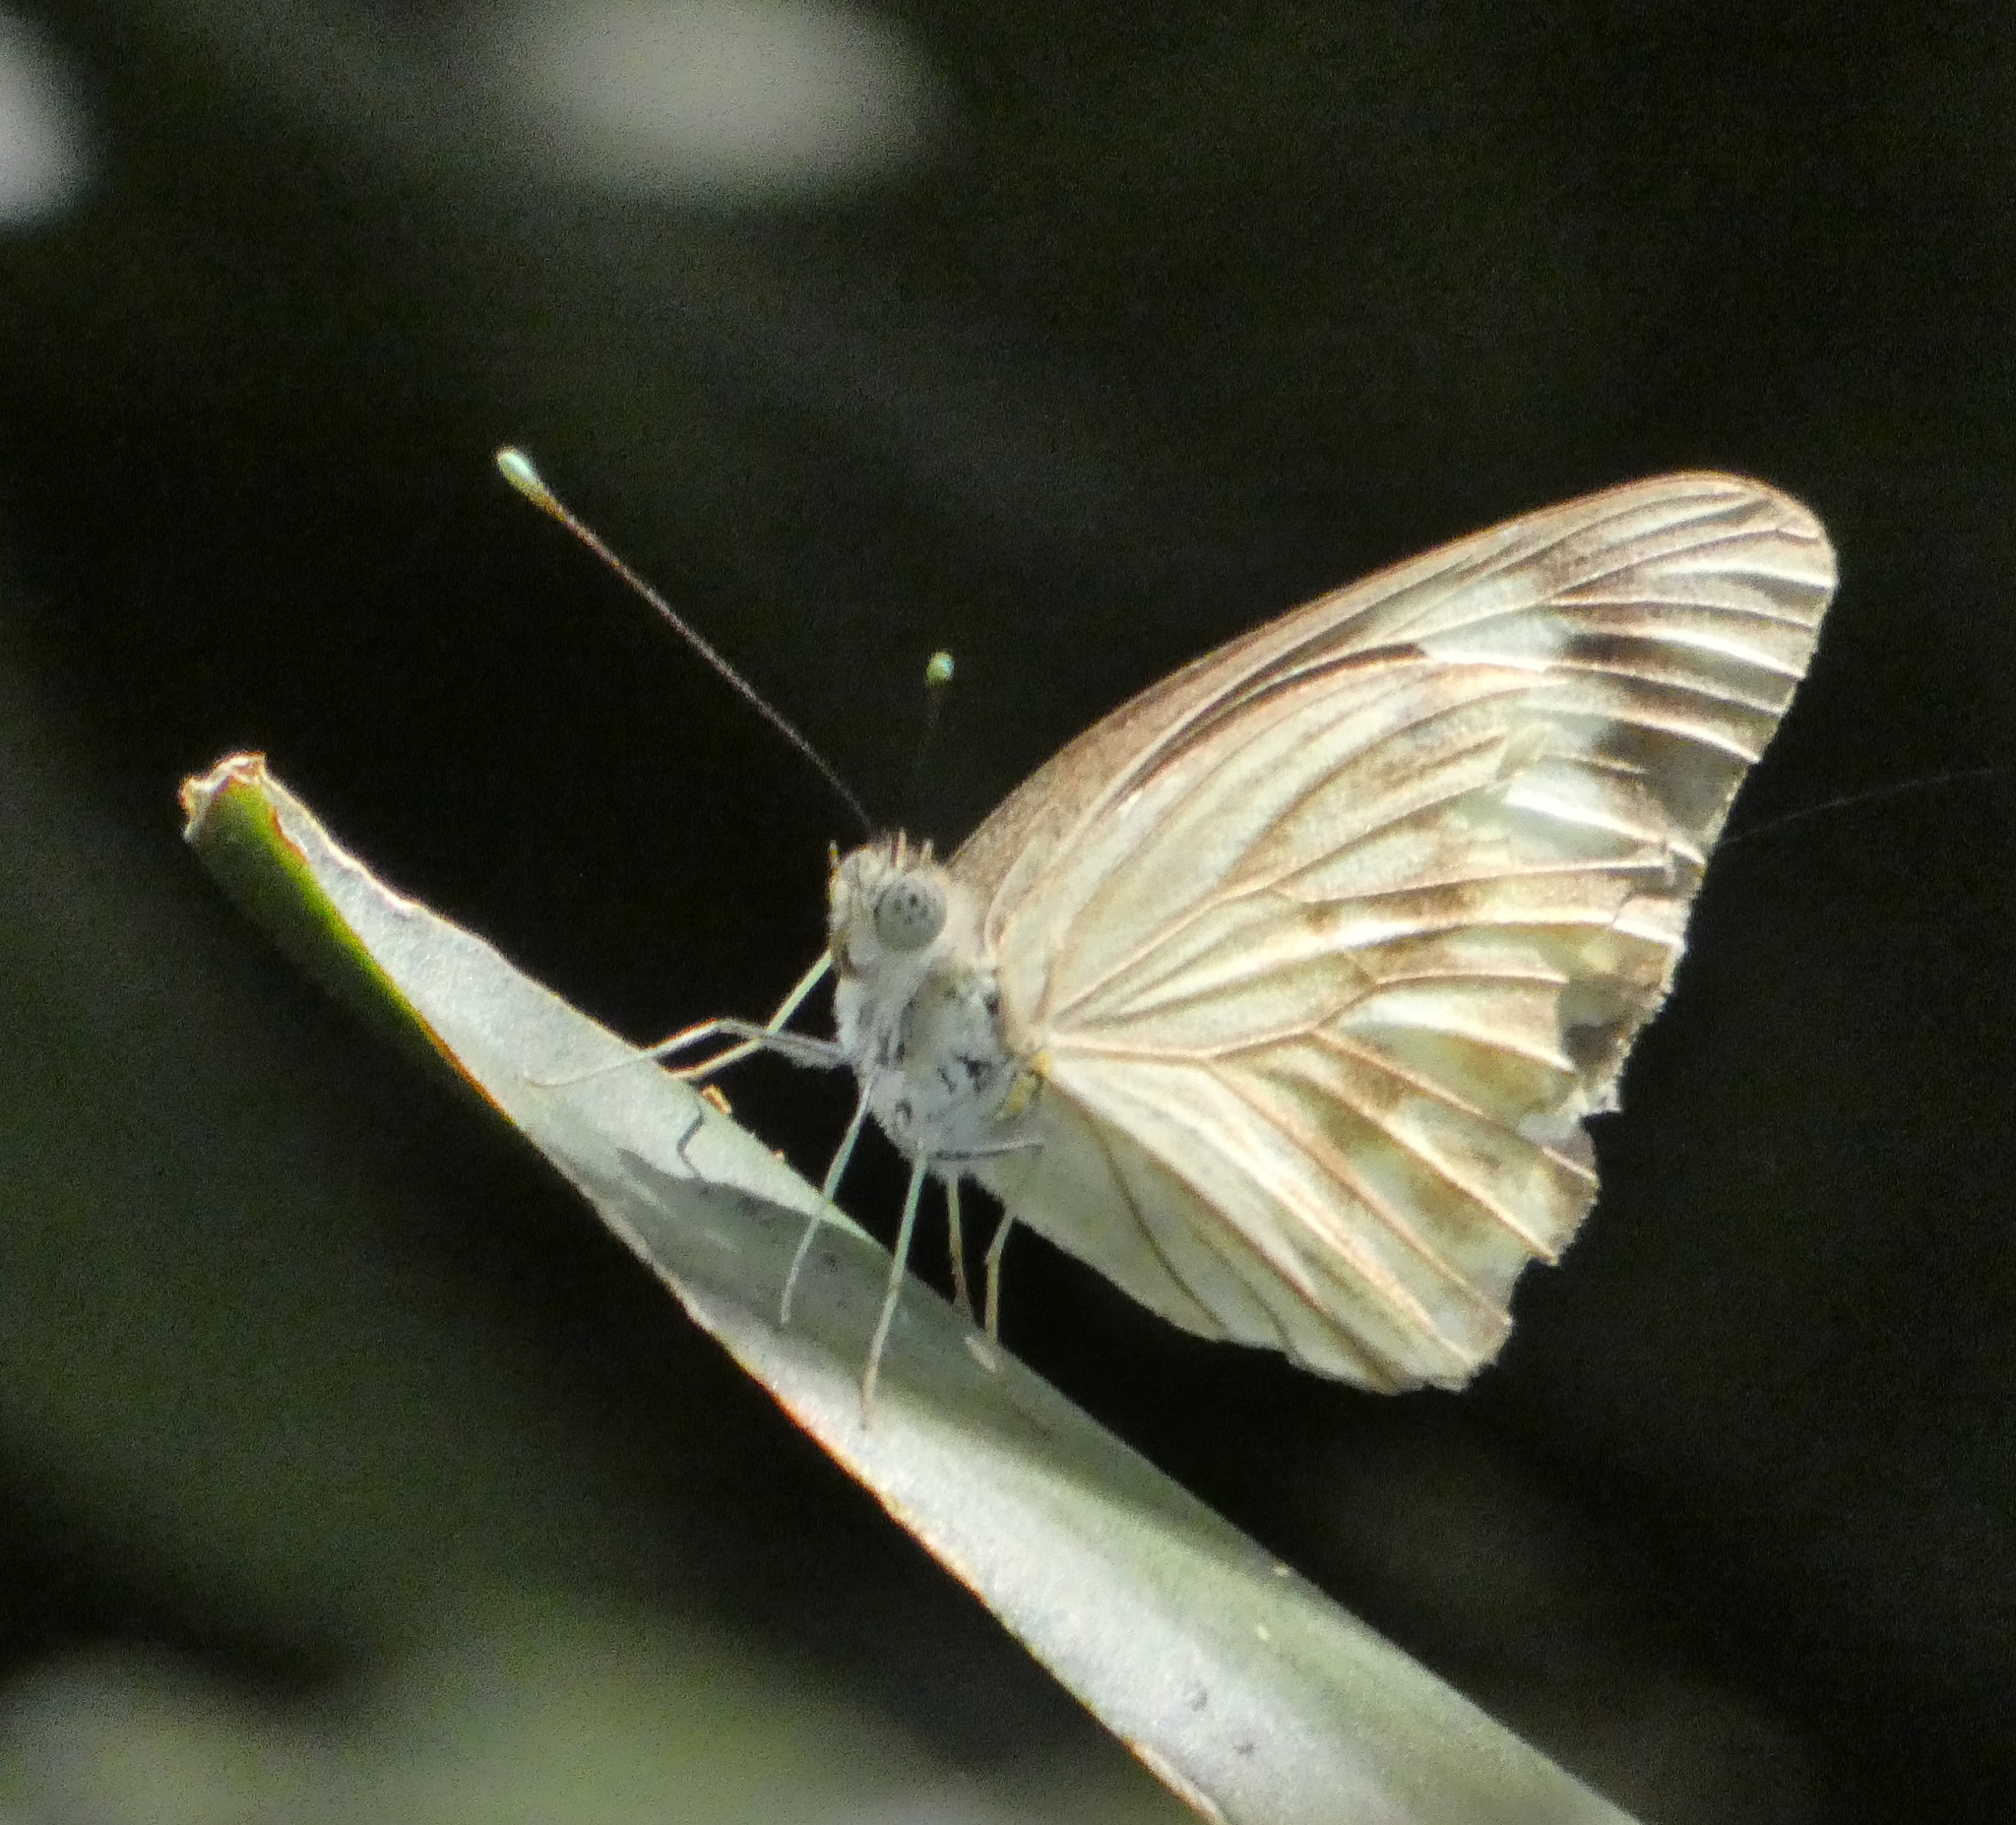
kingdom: Animalia
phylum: Arthropoda
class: Insecta
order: Lepidoptera
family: Pieridae
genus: Ascia
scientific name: Ascia monuste
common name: Great southern white
